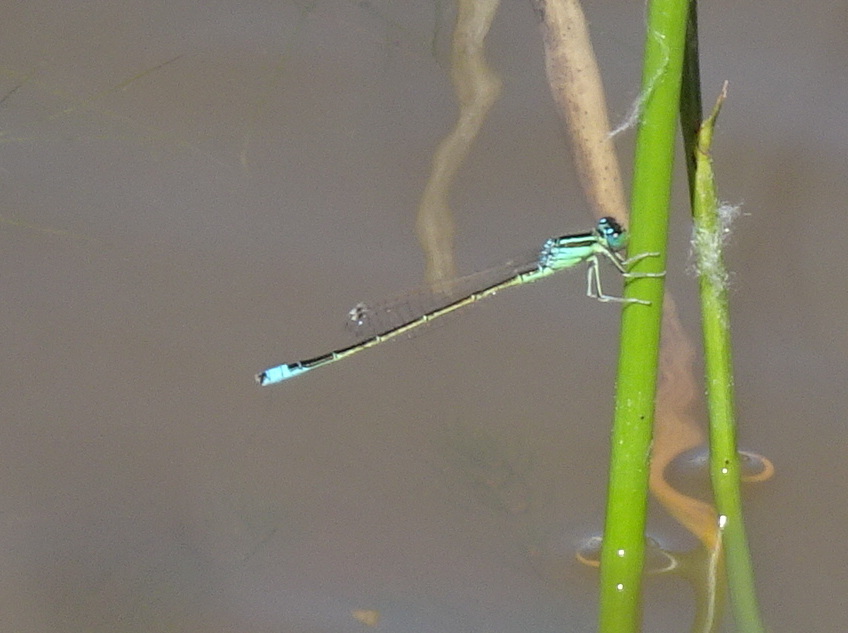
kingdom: Animalia
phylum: Arthropoda
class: Insecta
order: Odonata
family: Coenagrionidae
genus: Ischnura
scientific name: Ischnura pumilio
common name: Scarce blue-tailed damselfly
